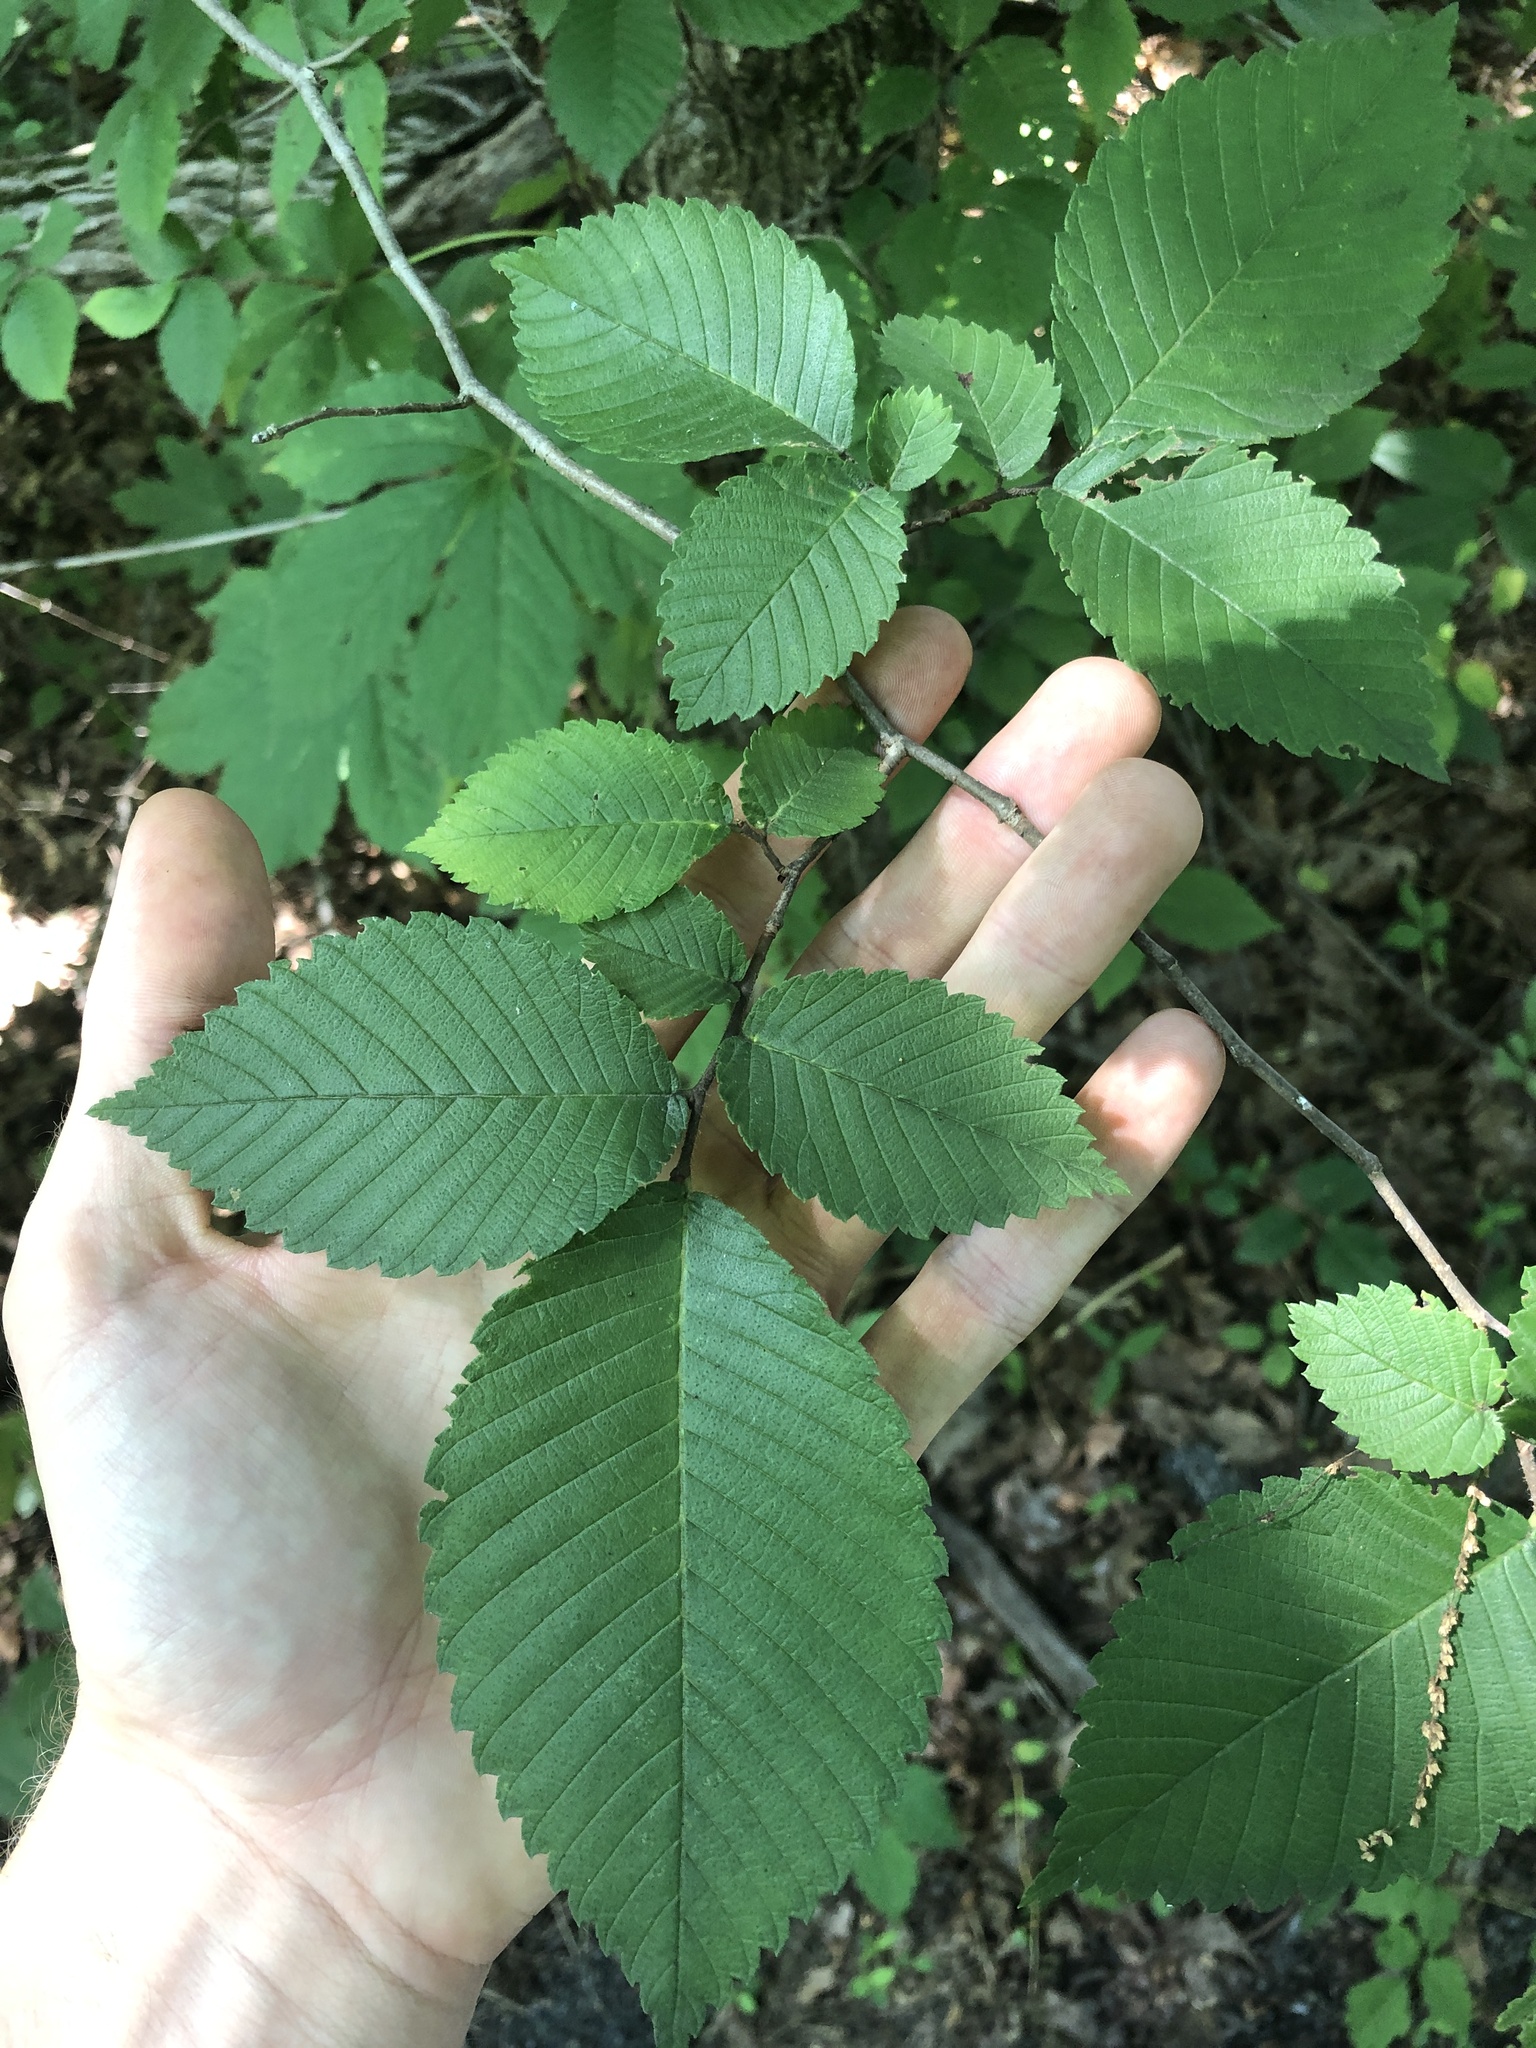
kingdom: Plantae
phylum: Tracheophyta
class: Magnoliopsida
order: Rosales
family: Ulmaceae
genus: Ulmus
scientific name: Ulmus americana
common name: American elm
